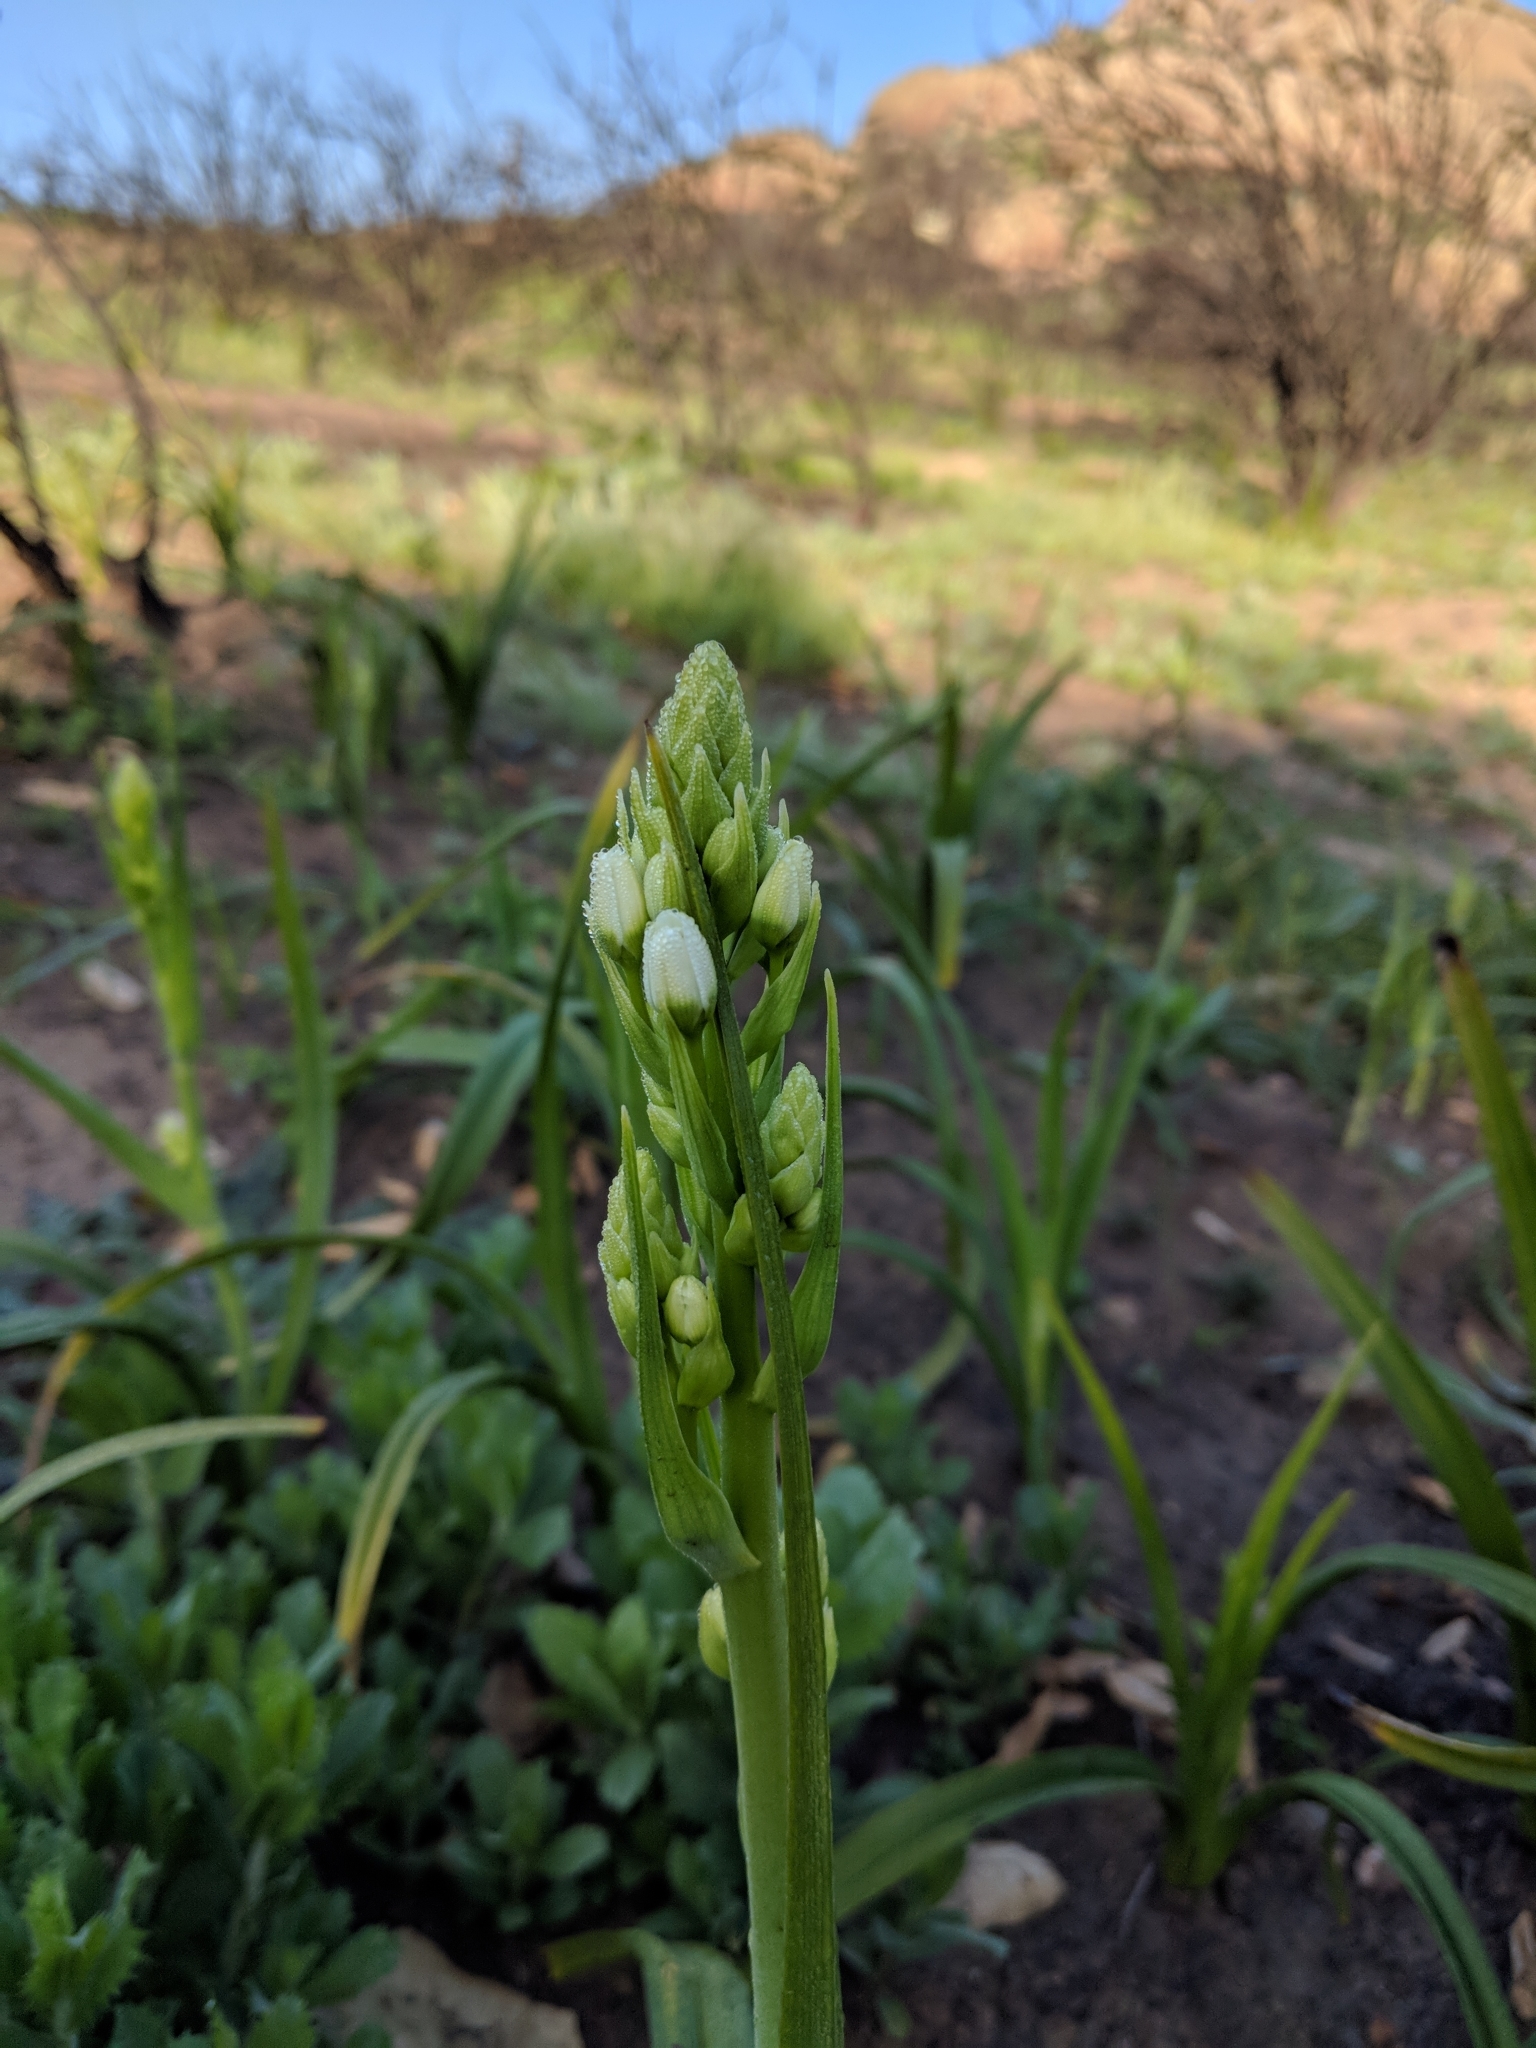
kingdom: Plantae
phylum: Tracheophyta
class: Liliopsida
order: Liliales
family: Melanthiaceae
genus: Toxicoscordion
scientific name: Toxicoscordion fremontii
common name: Fremont's death camas
